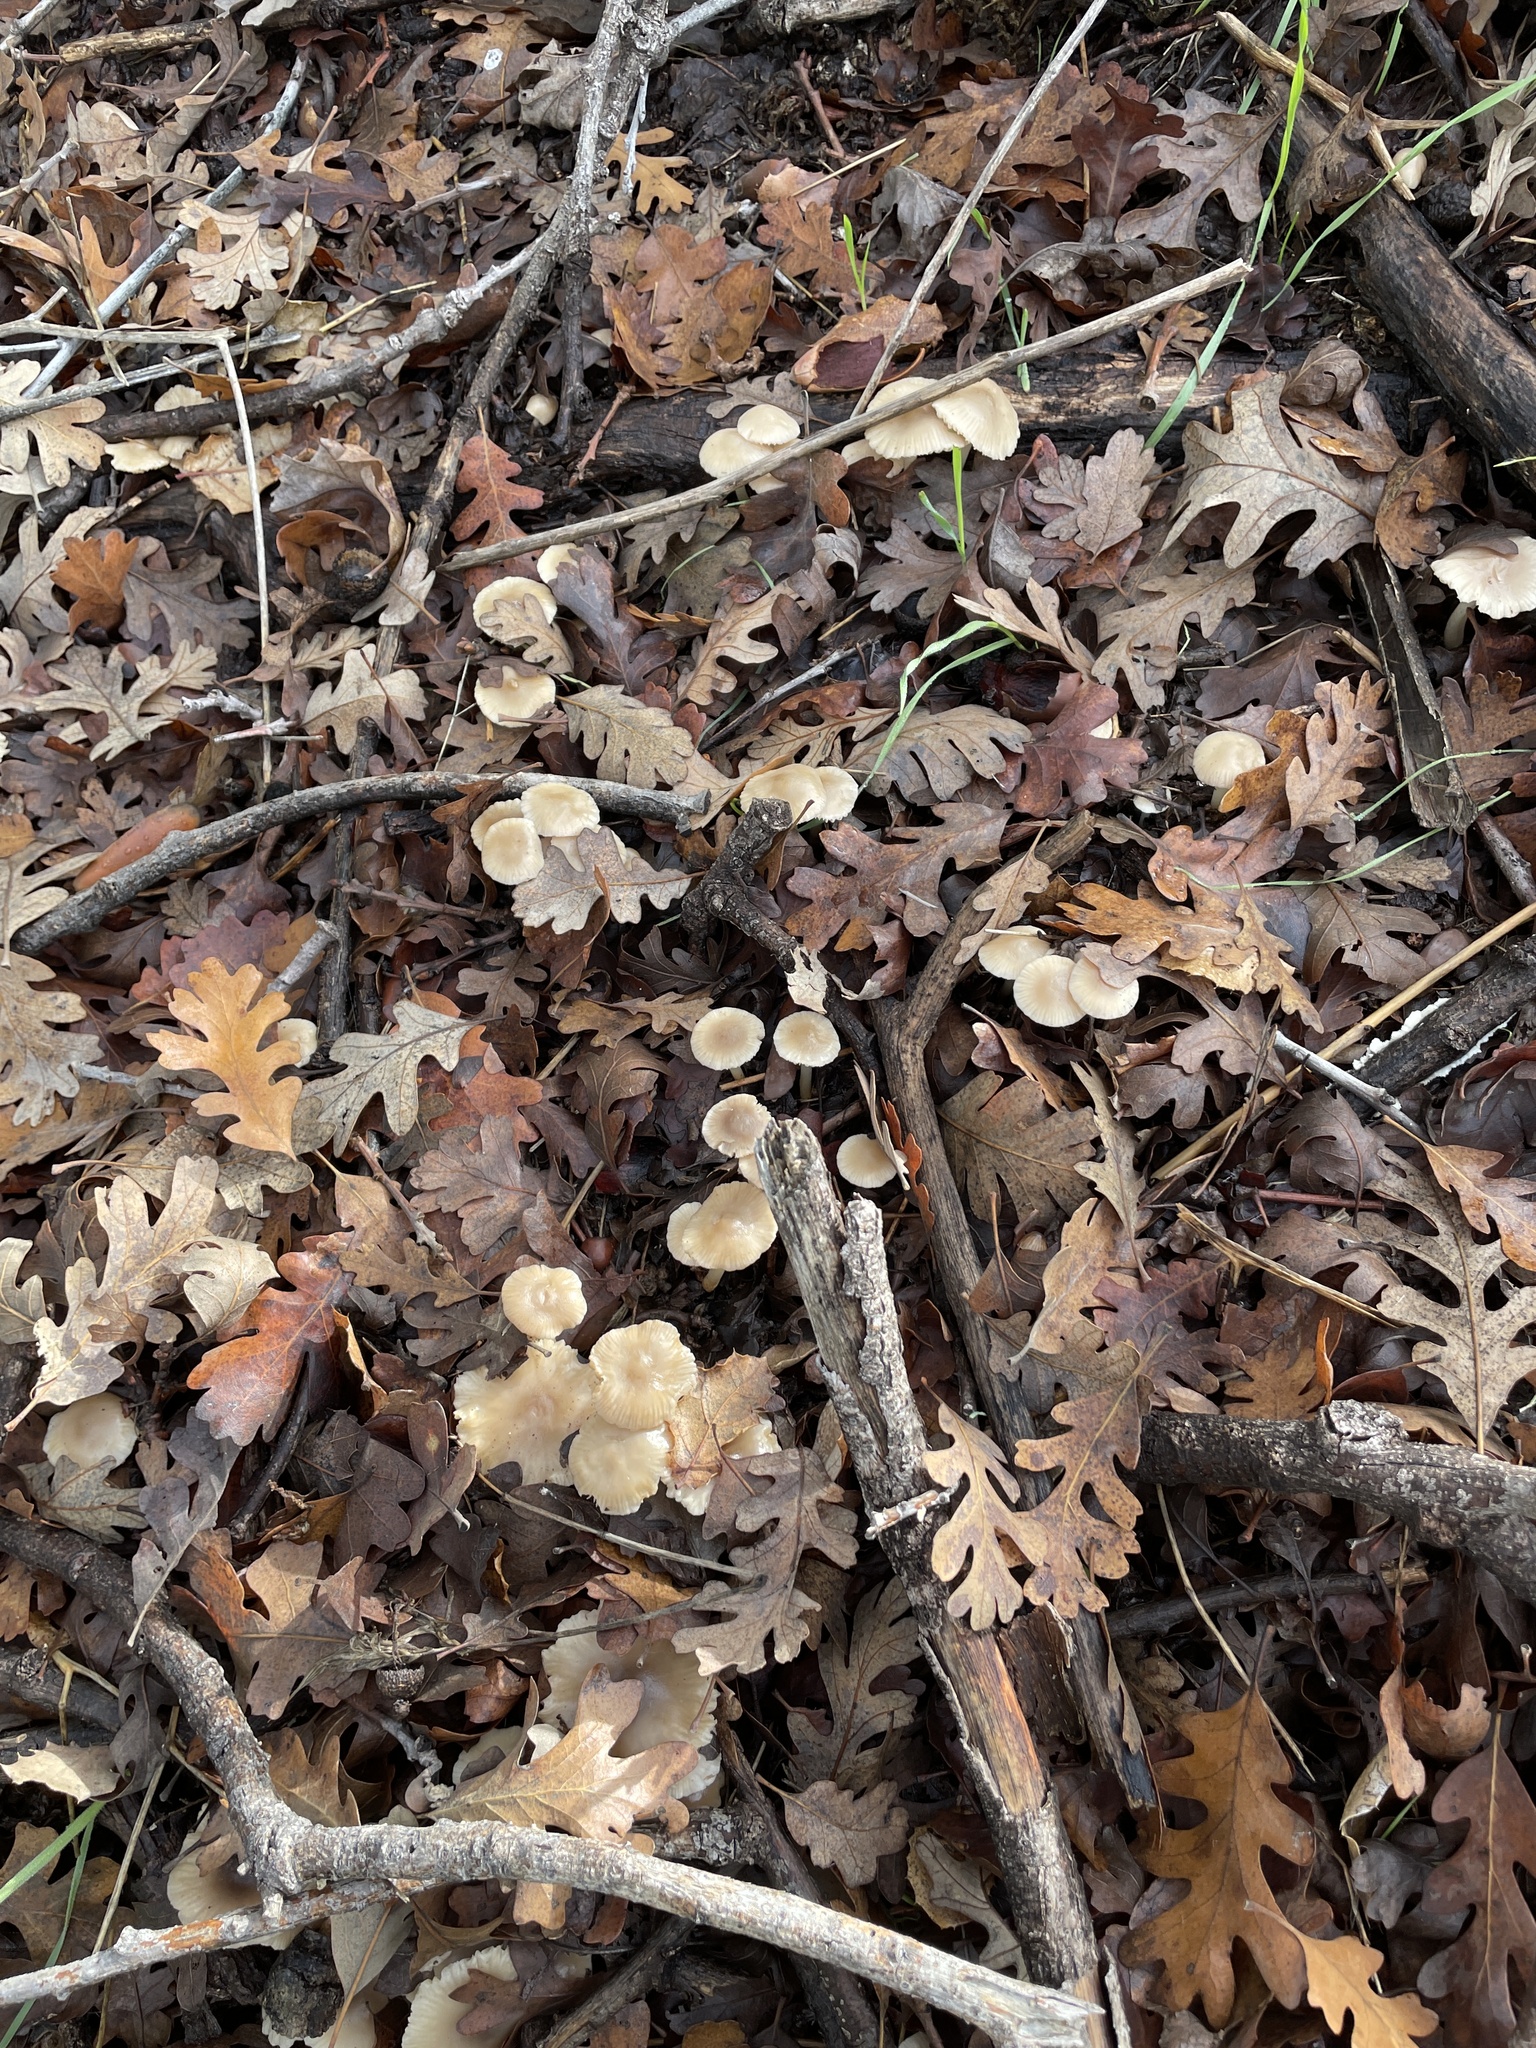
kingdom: Fungi
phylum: Basidiomycota
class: Agaricomycetes
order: Agaricales
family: Marasmiaceae
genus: Marasmius
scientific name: Marasmius albogriseus
